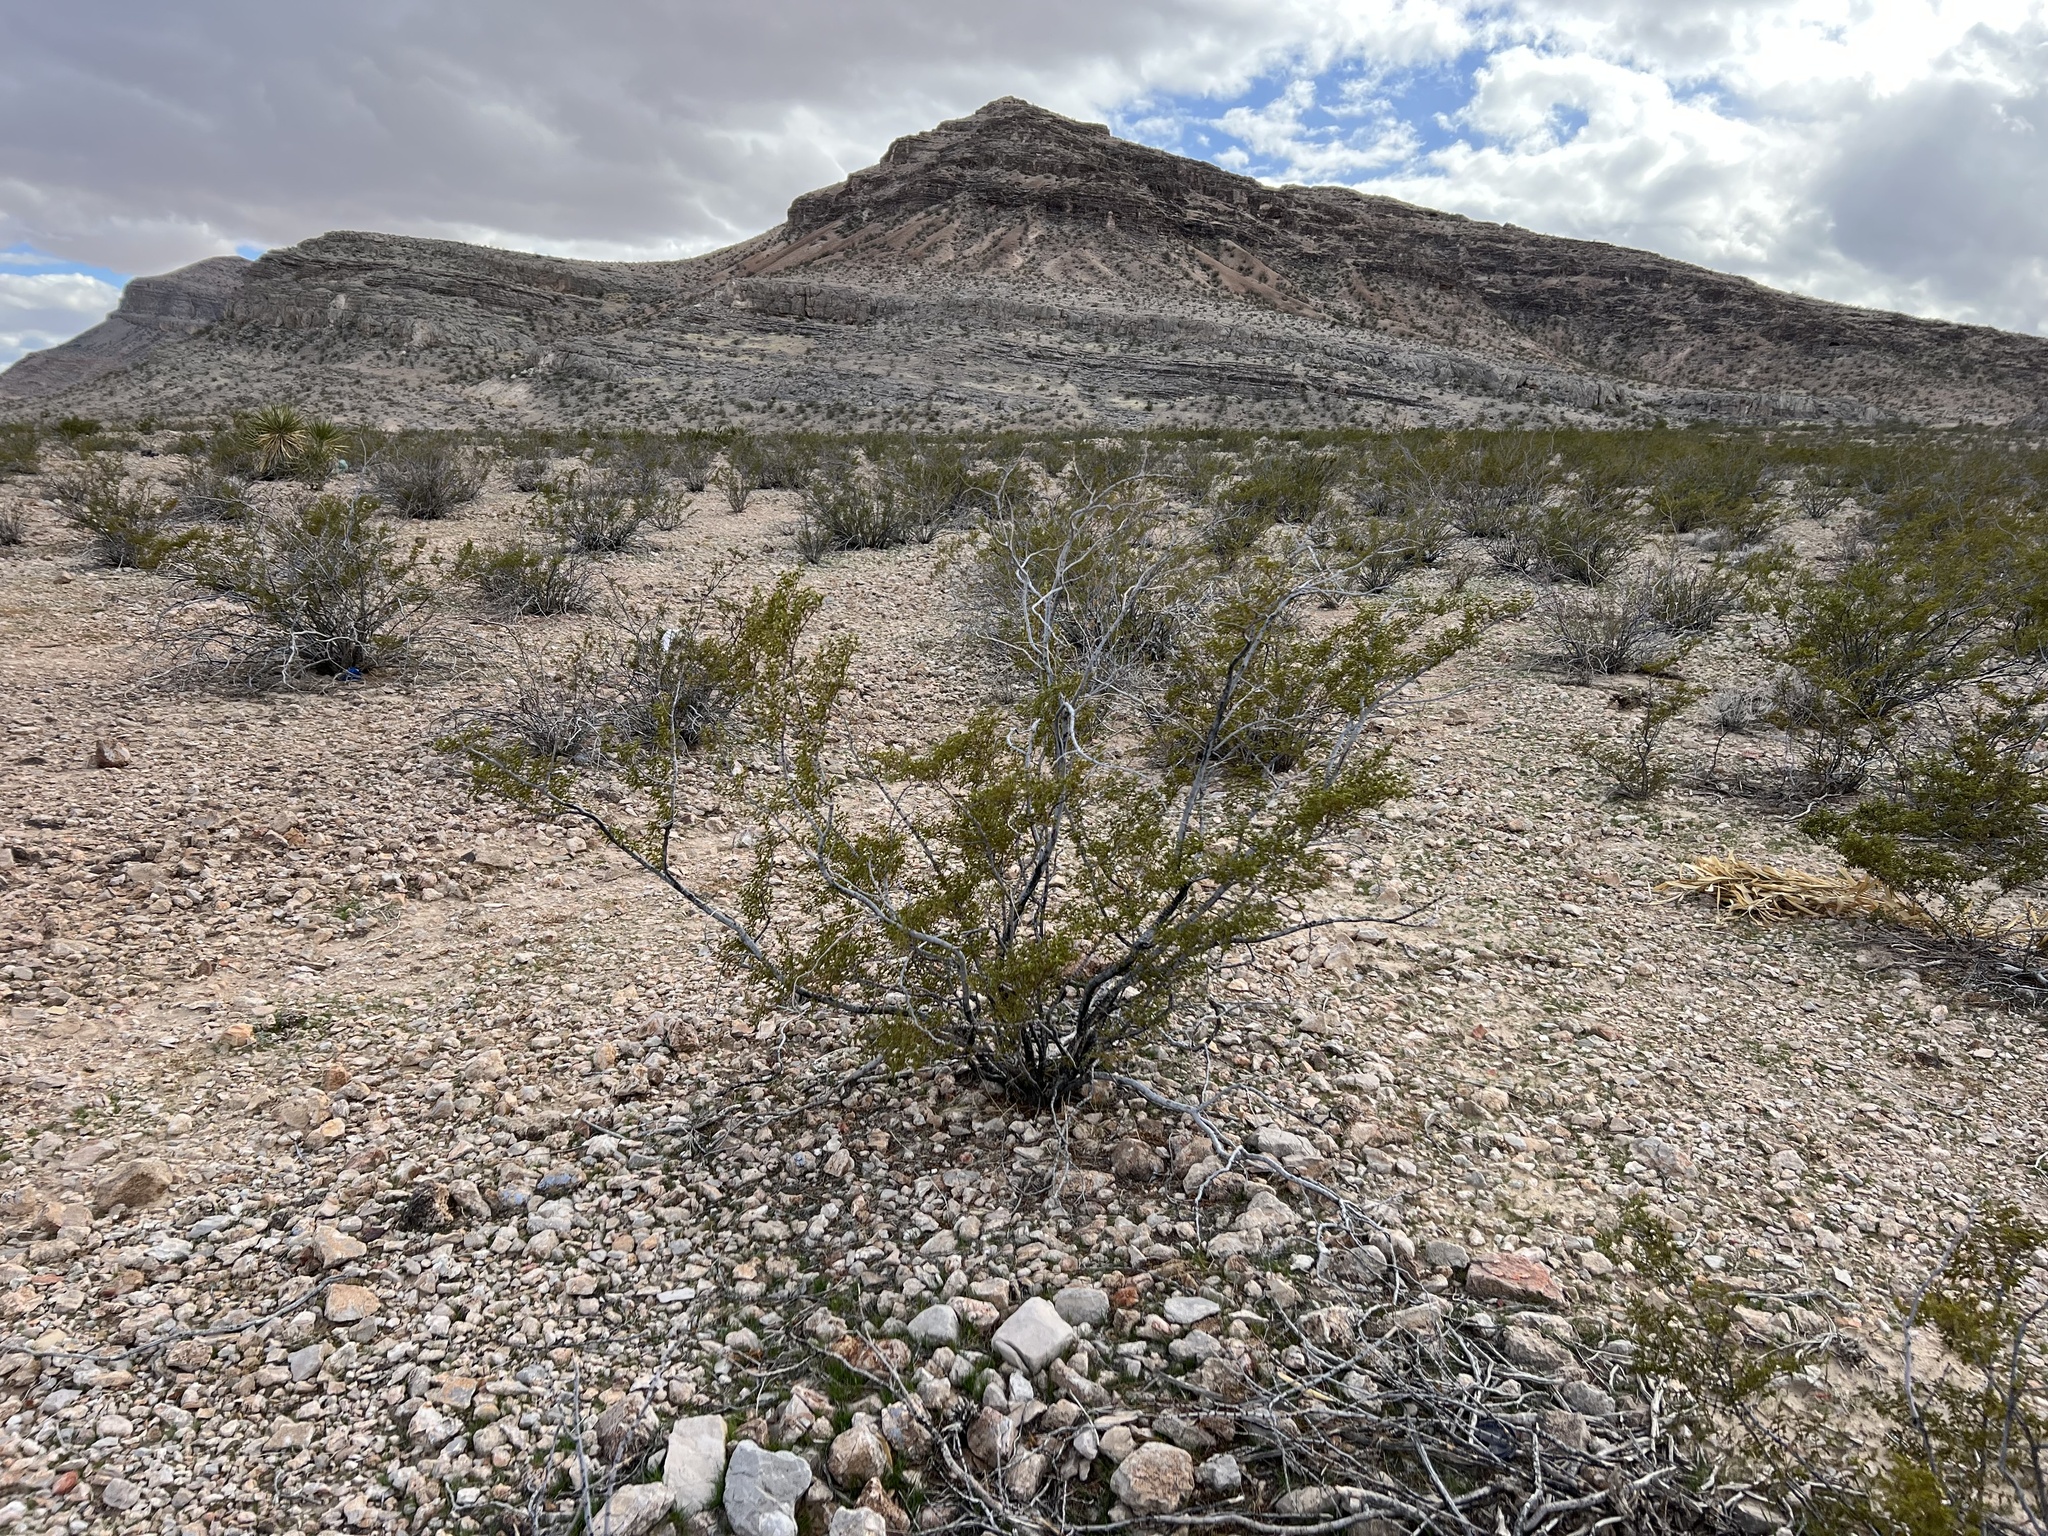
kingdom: Plantae
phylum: Tracheophyta
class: Magnoliopsida
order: Zygophyllales
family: Zygophyllaceae
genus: Larrea
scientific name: Larrea tridentata
